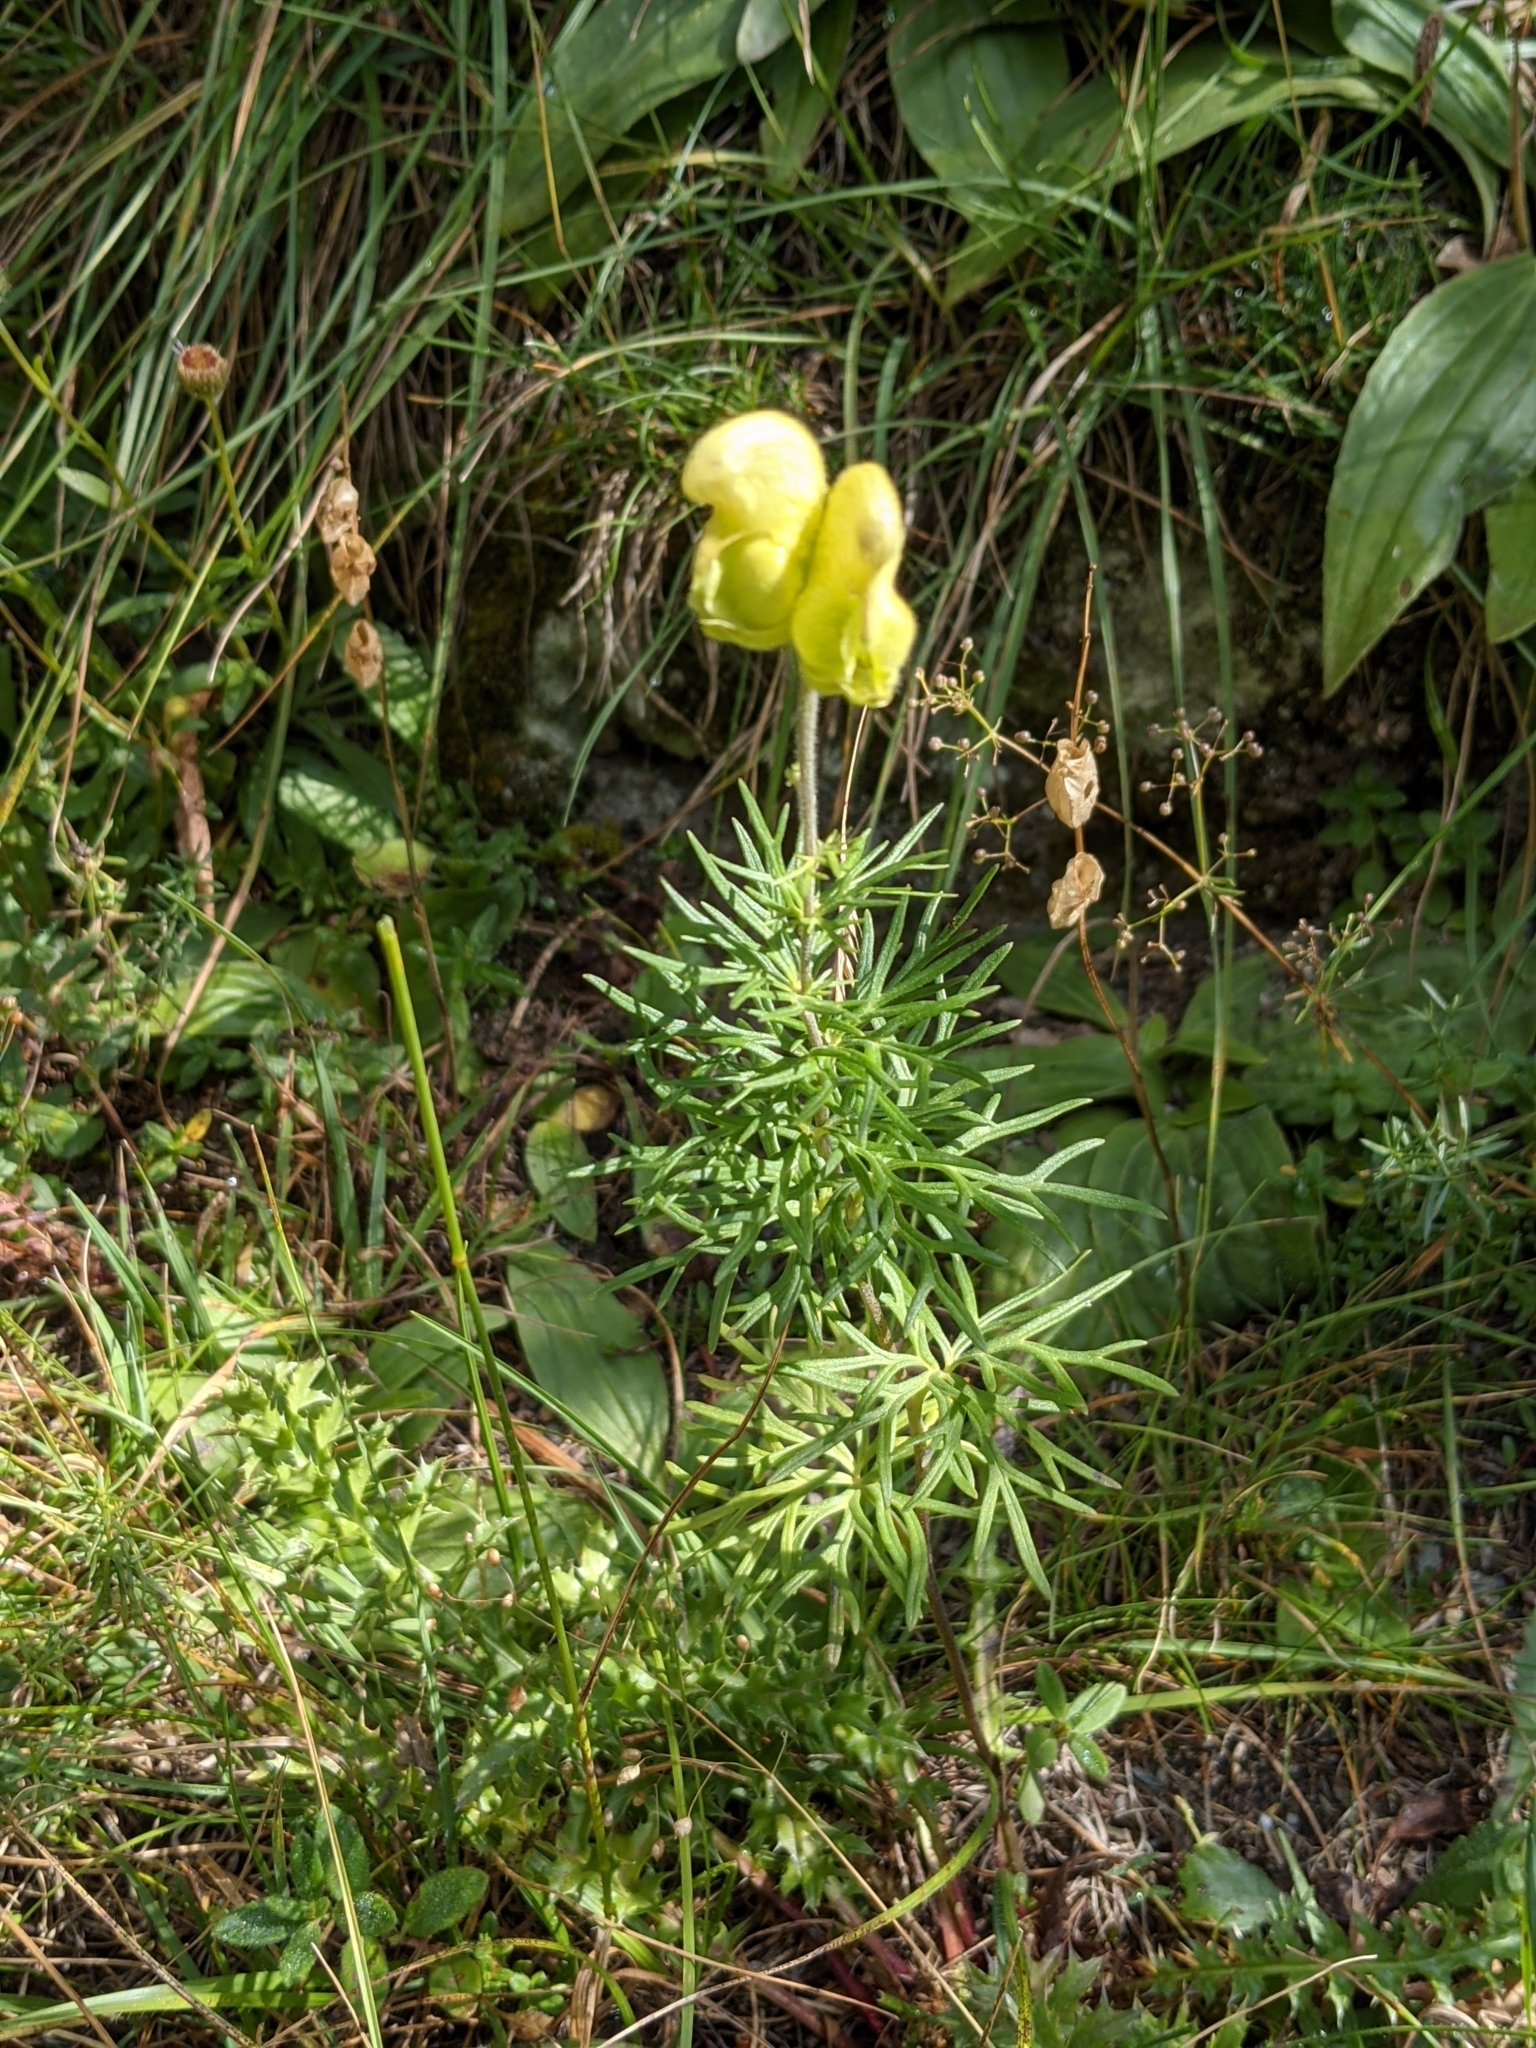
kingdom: Plantae
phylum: Tracheophyta
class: Magnoliopsida
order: Ranunculales
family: Ranunculaceae
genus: Aconitum
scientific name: Aconitum anthora
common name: Yellow monkshood
